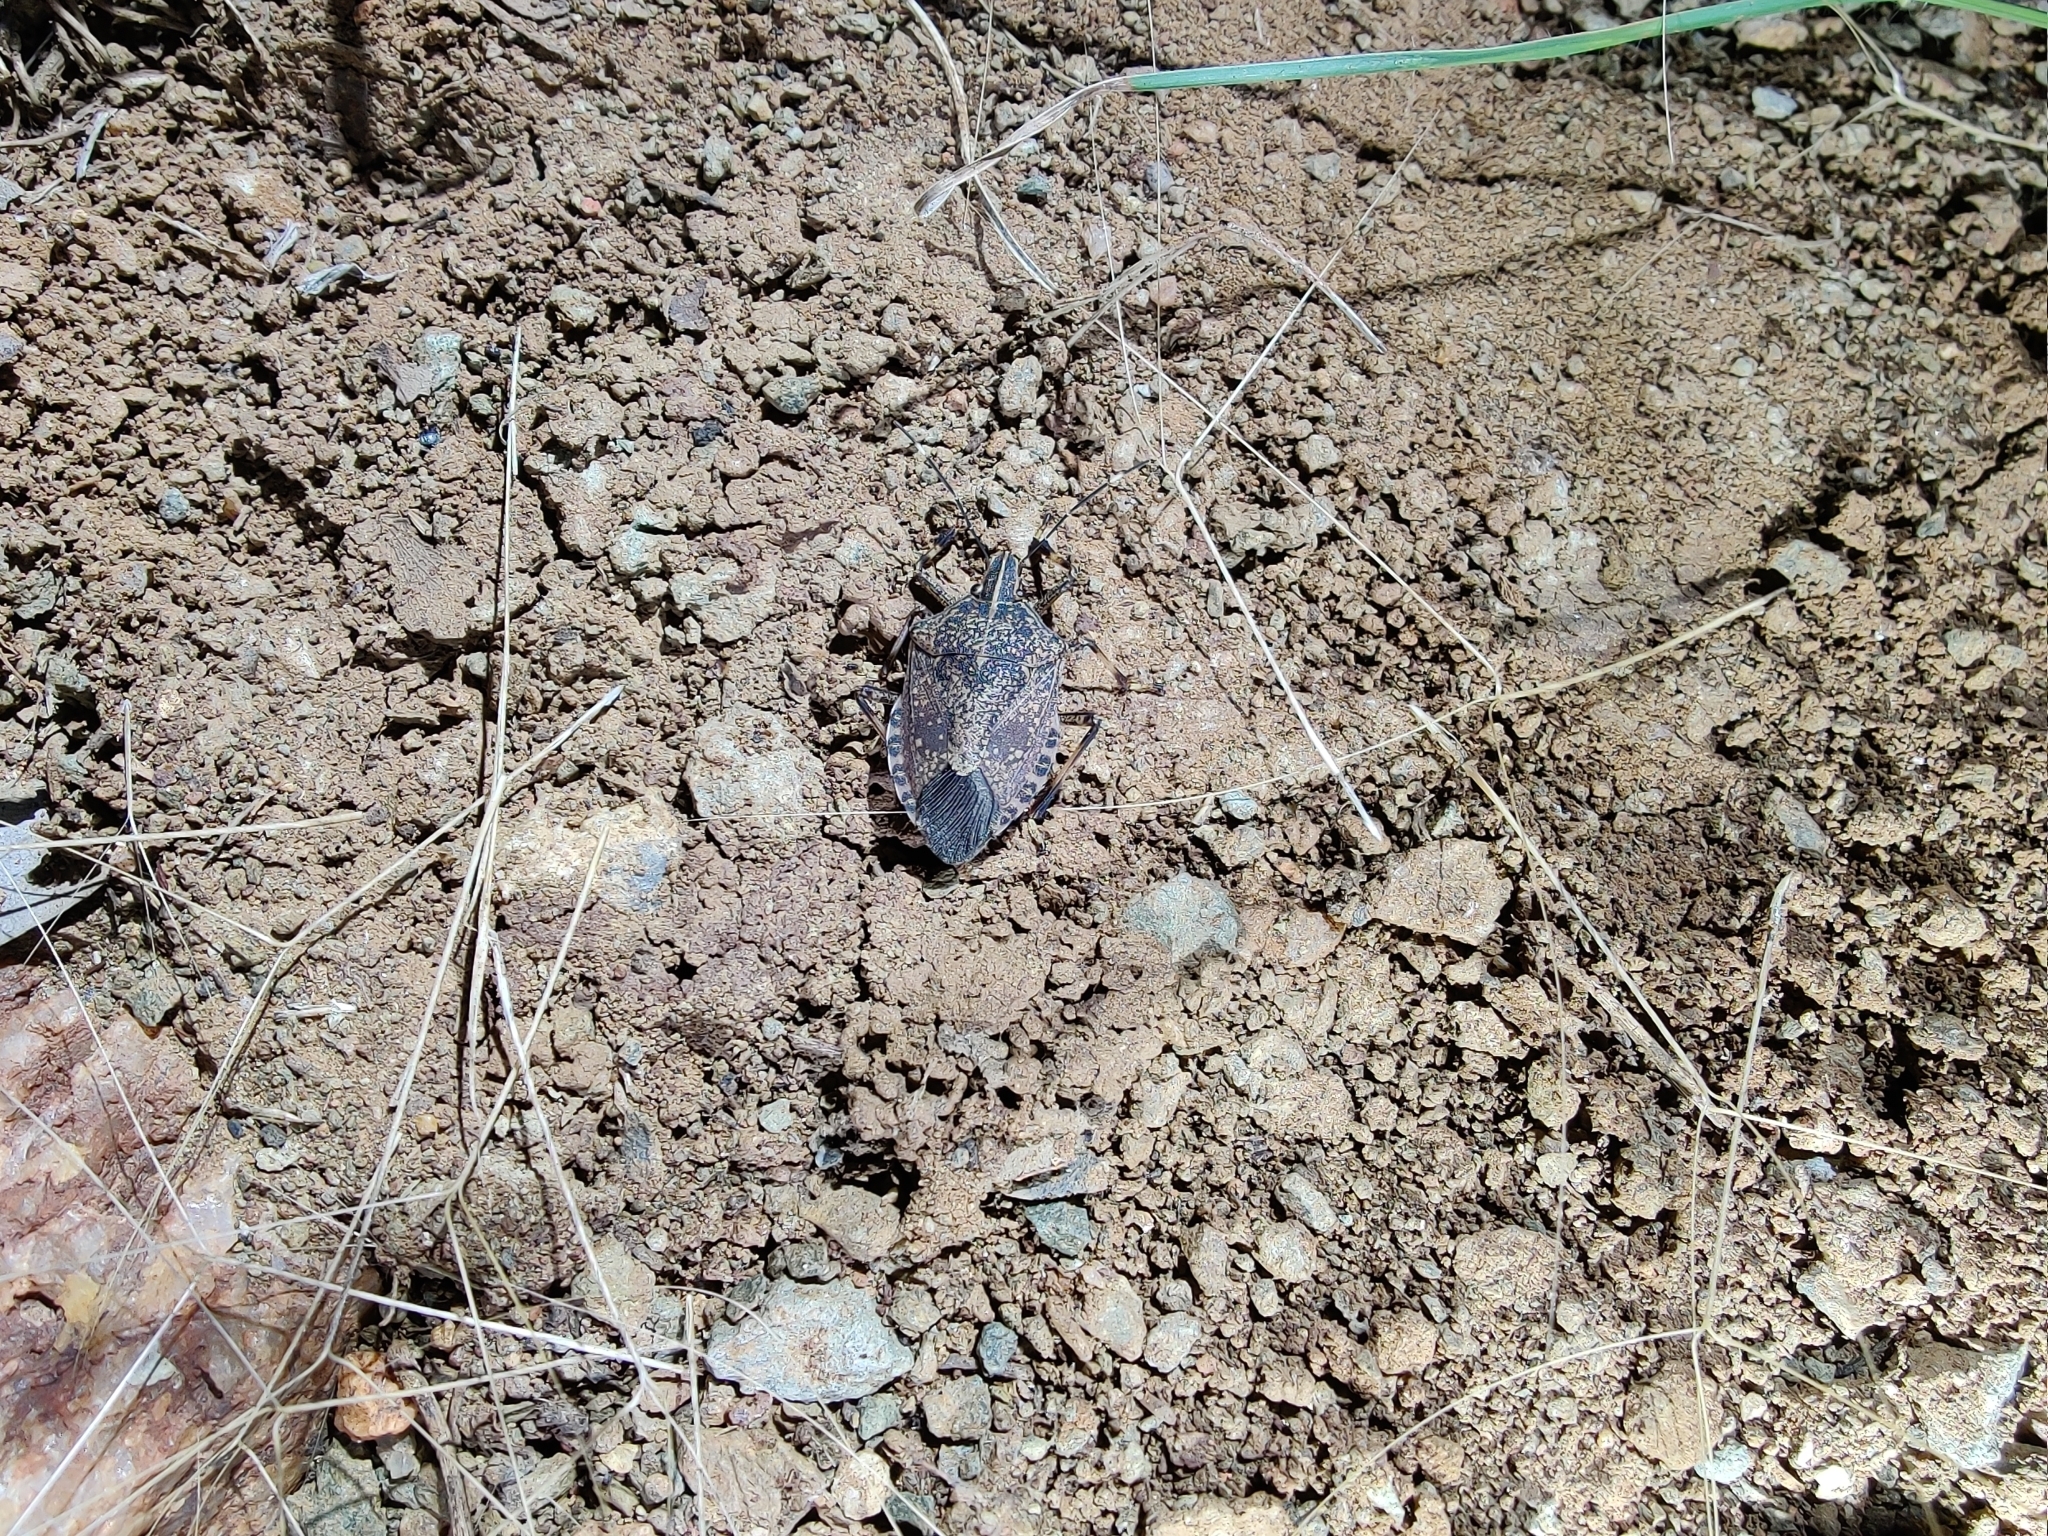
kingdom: Animalia
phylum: Arthropoda
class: Insecta
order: Hemiptera
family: Pentatomidae
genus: Erthesina
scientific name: Erthesina acuminata
